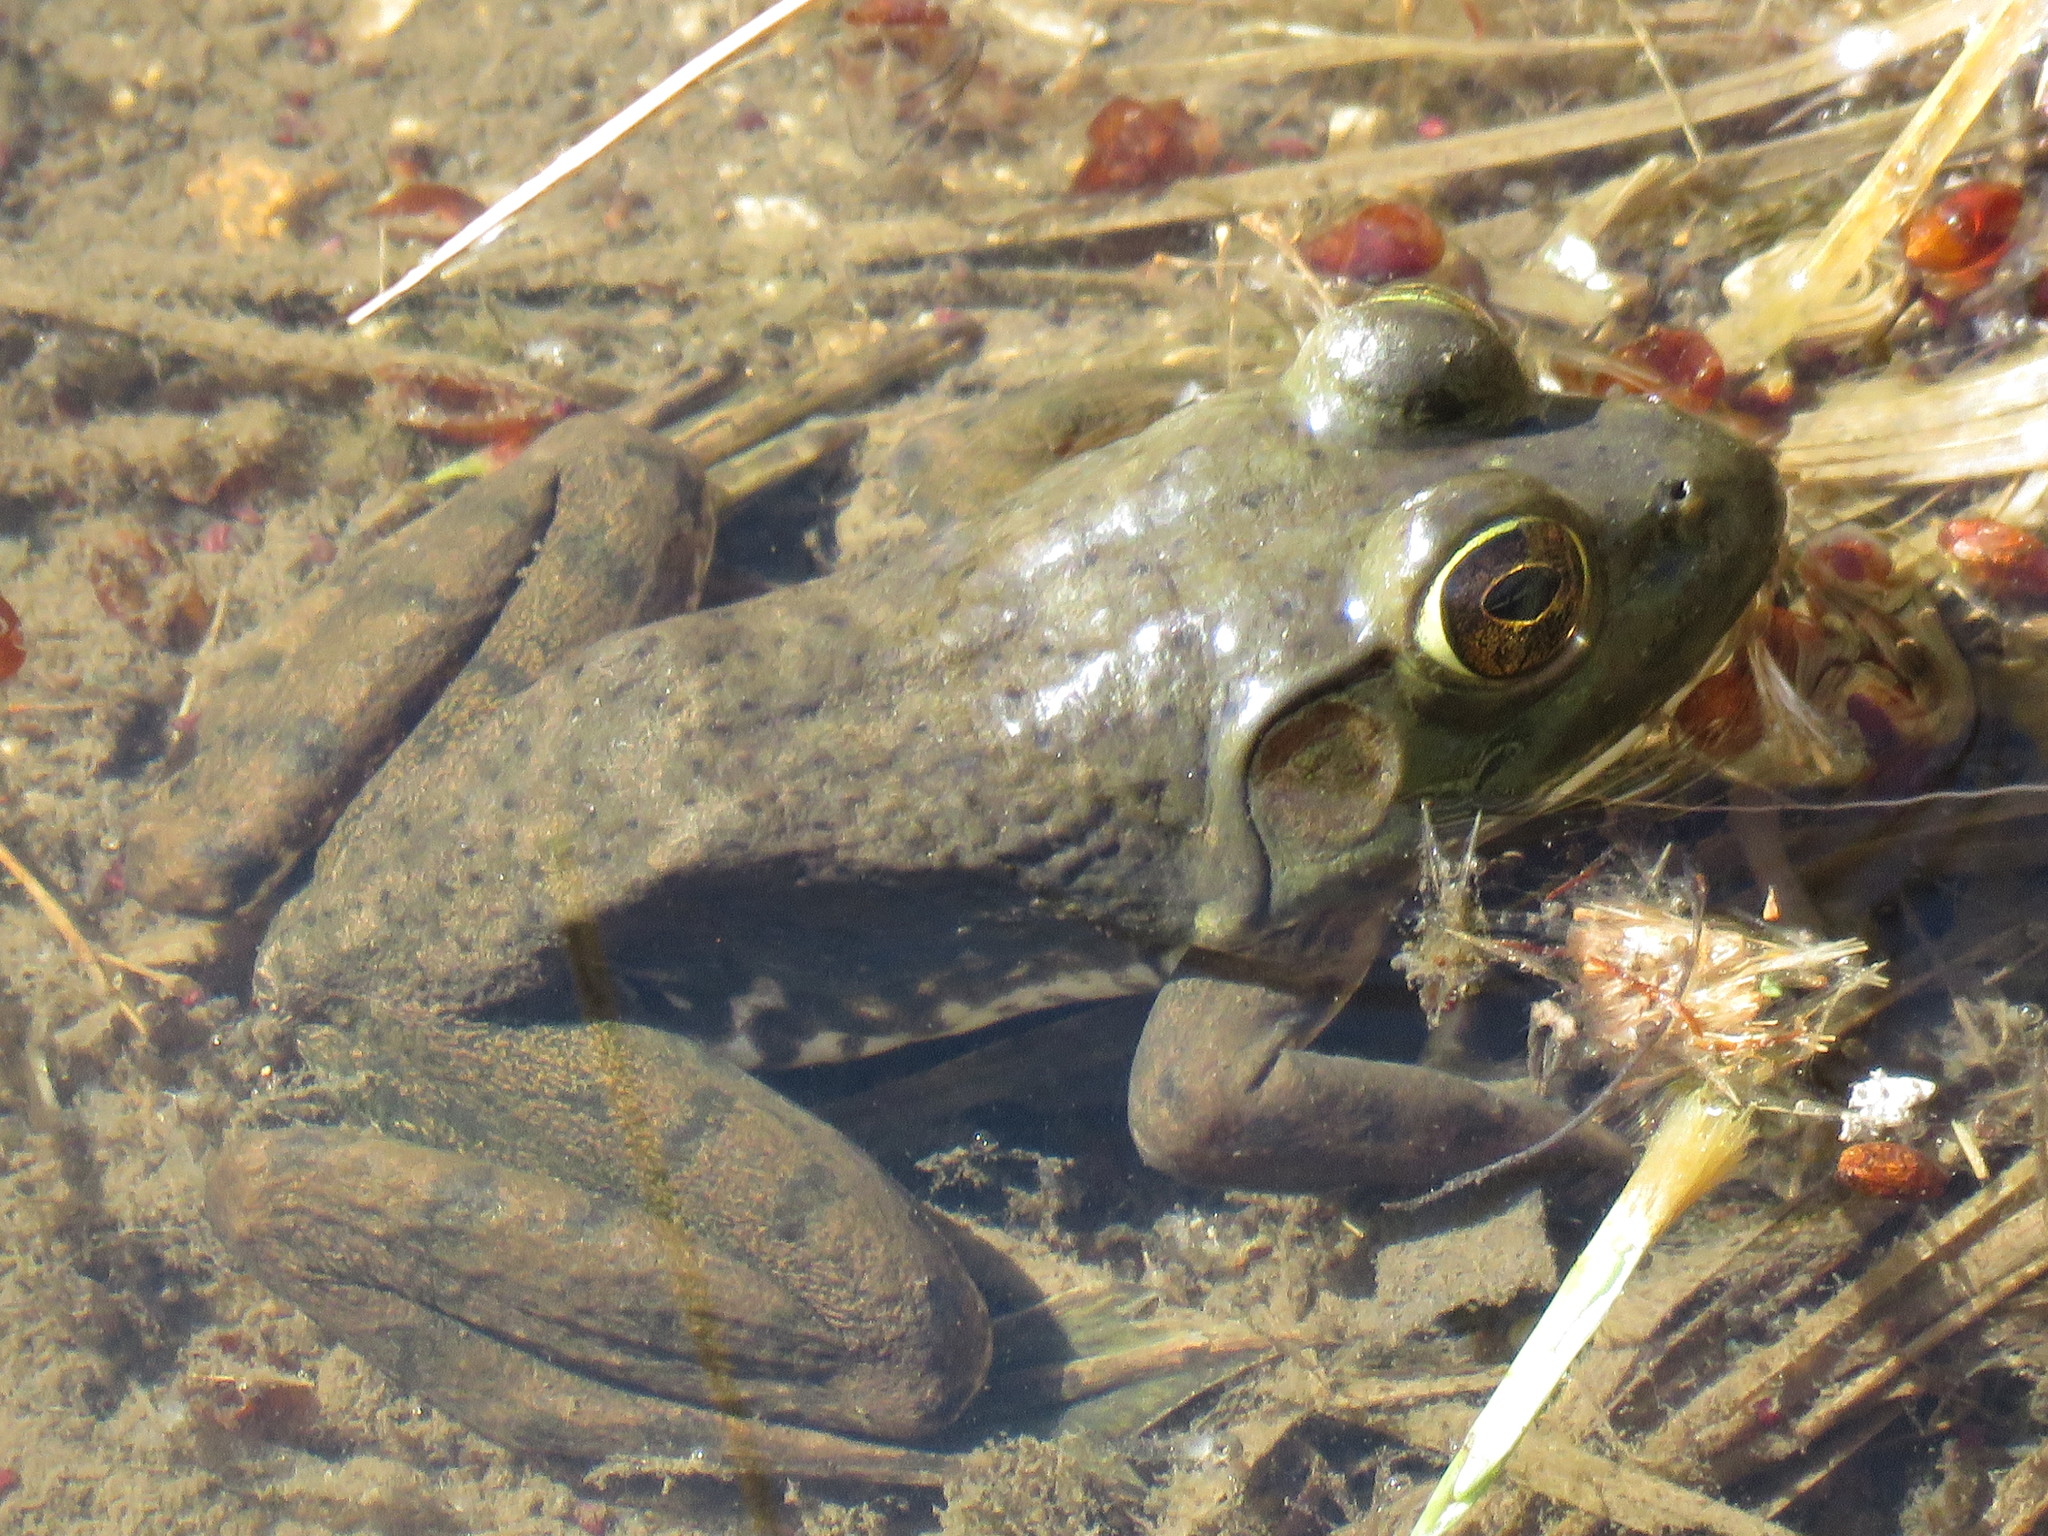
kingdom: Animalia
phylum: Chordata
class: Amphibia
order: Anura
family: Ranidae
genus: Lithobates
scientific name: Lithobates catesbeianus
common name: American bullfrog
